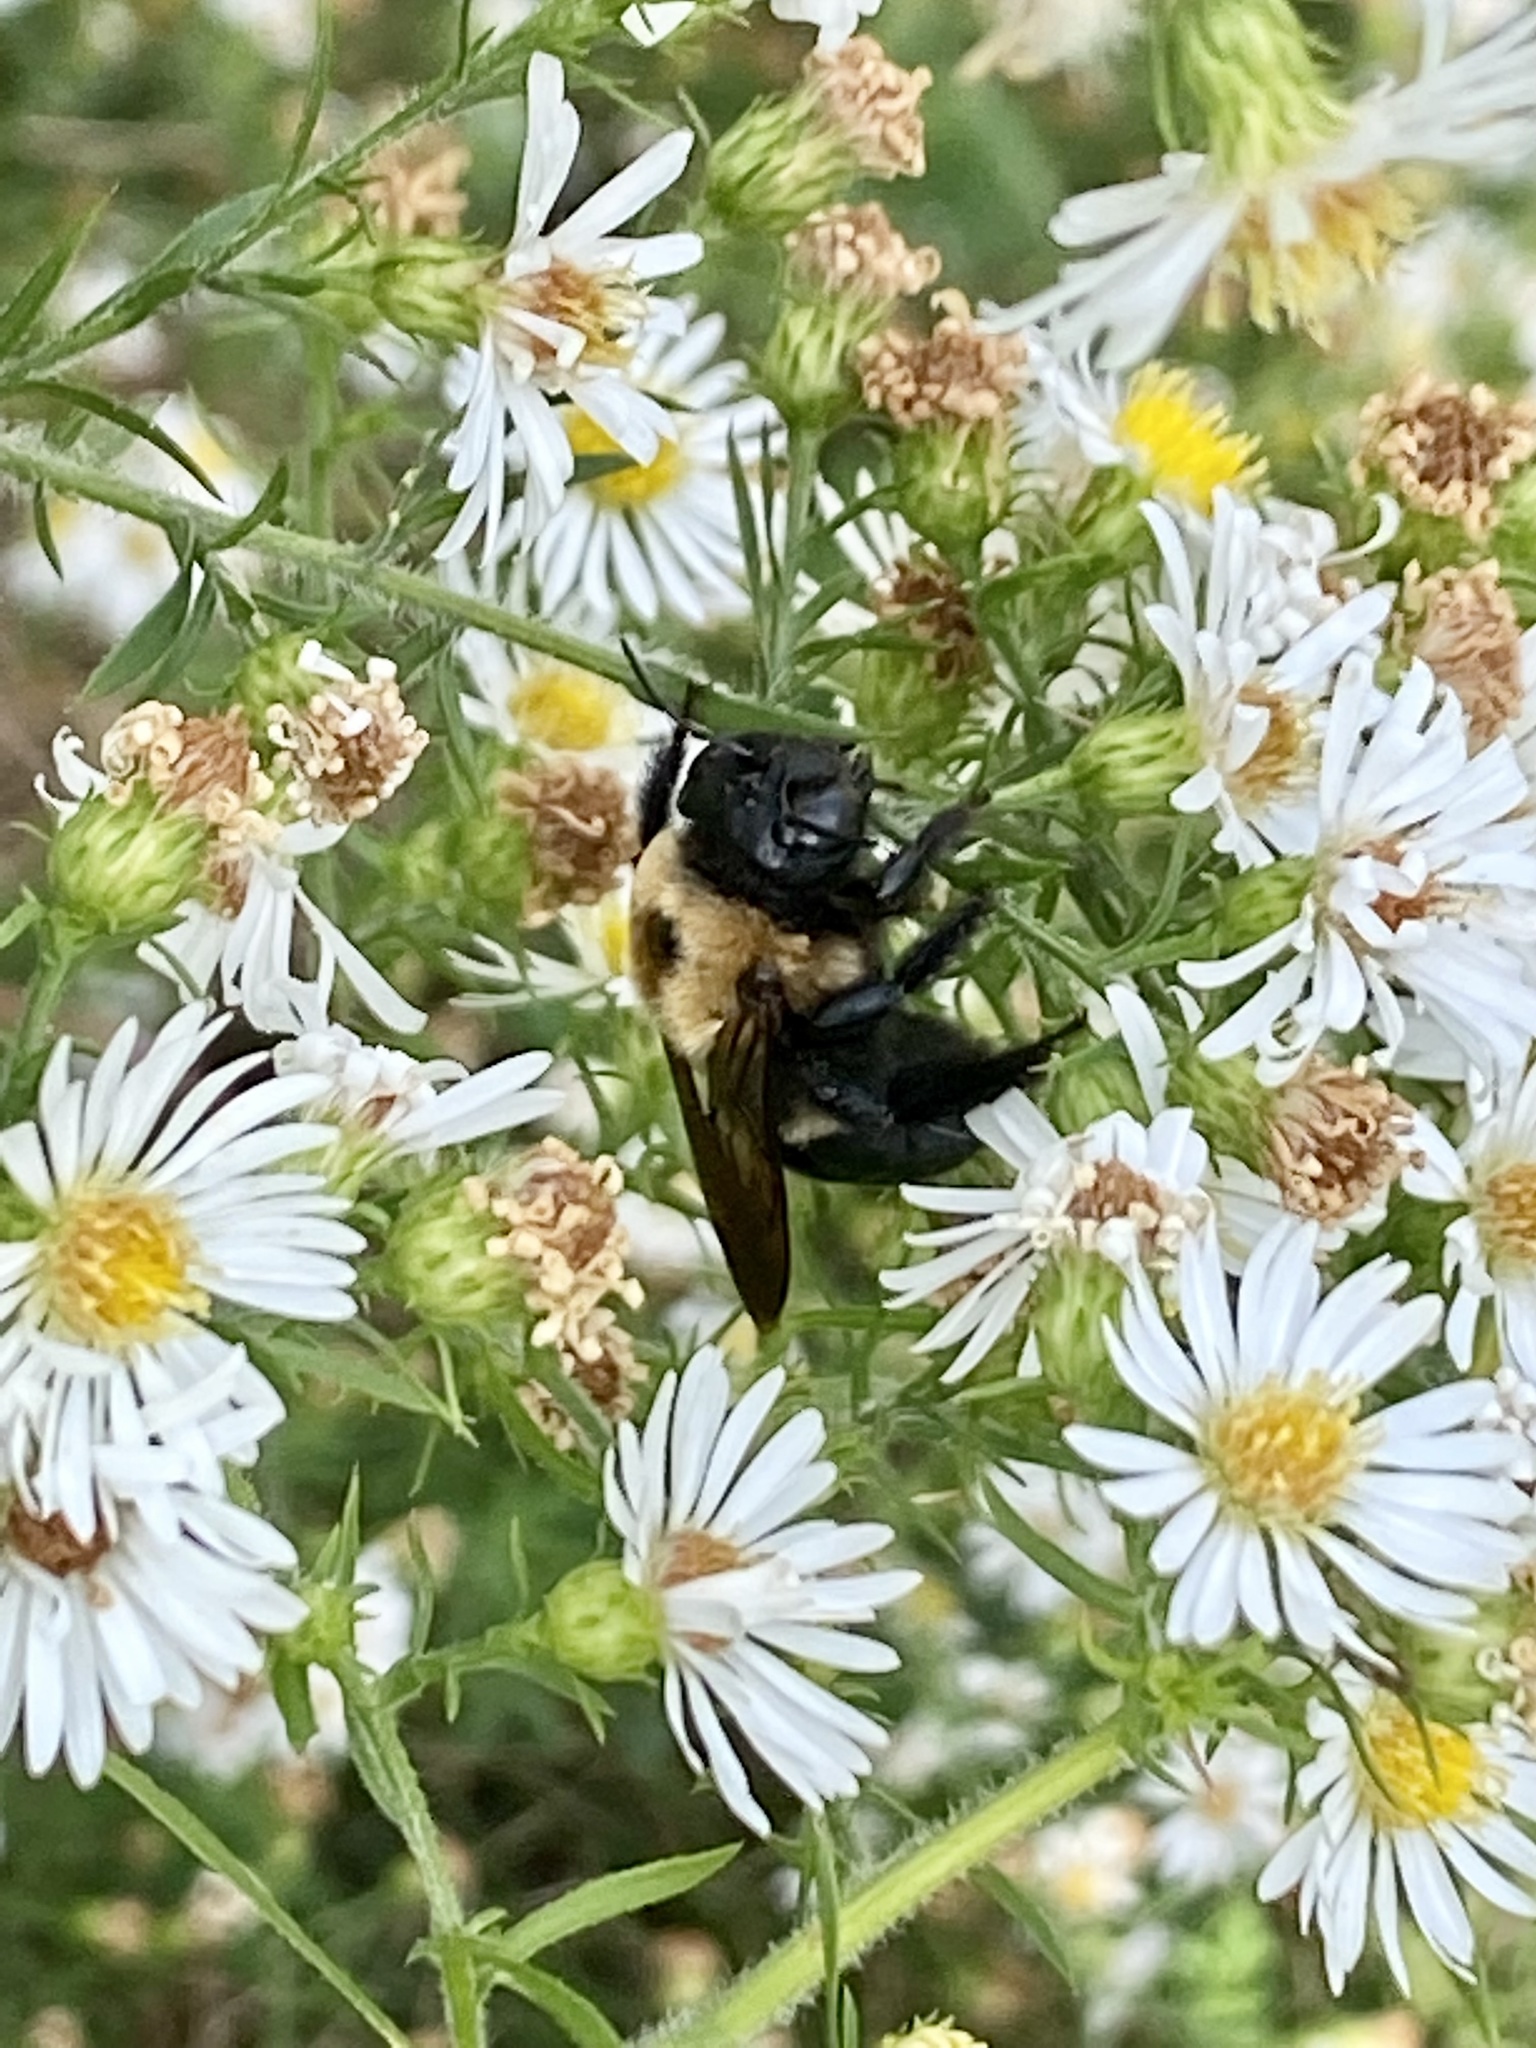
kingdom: Animalia
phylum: Arthropoda
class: Insecta
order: Hymenoptera
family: Apidae
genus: Xylocopa
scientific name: Xylocopa virginica
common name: Carpenter bee
